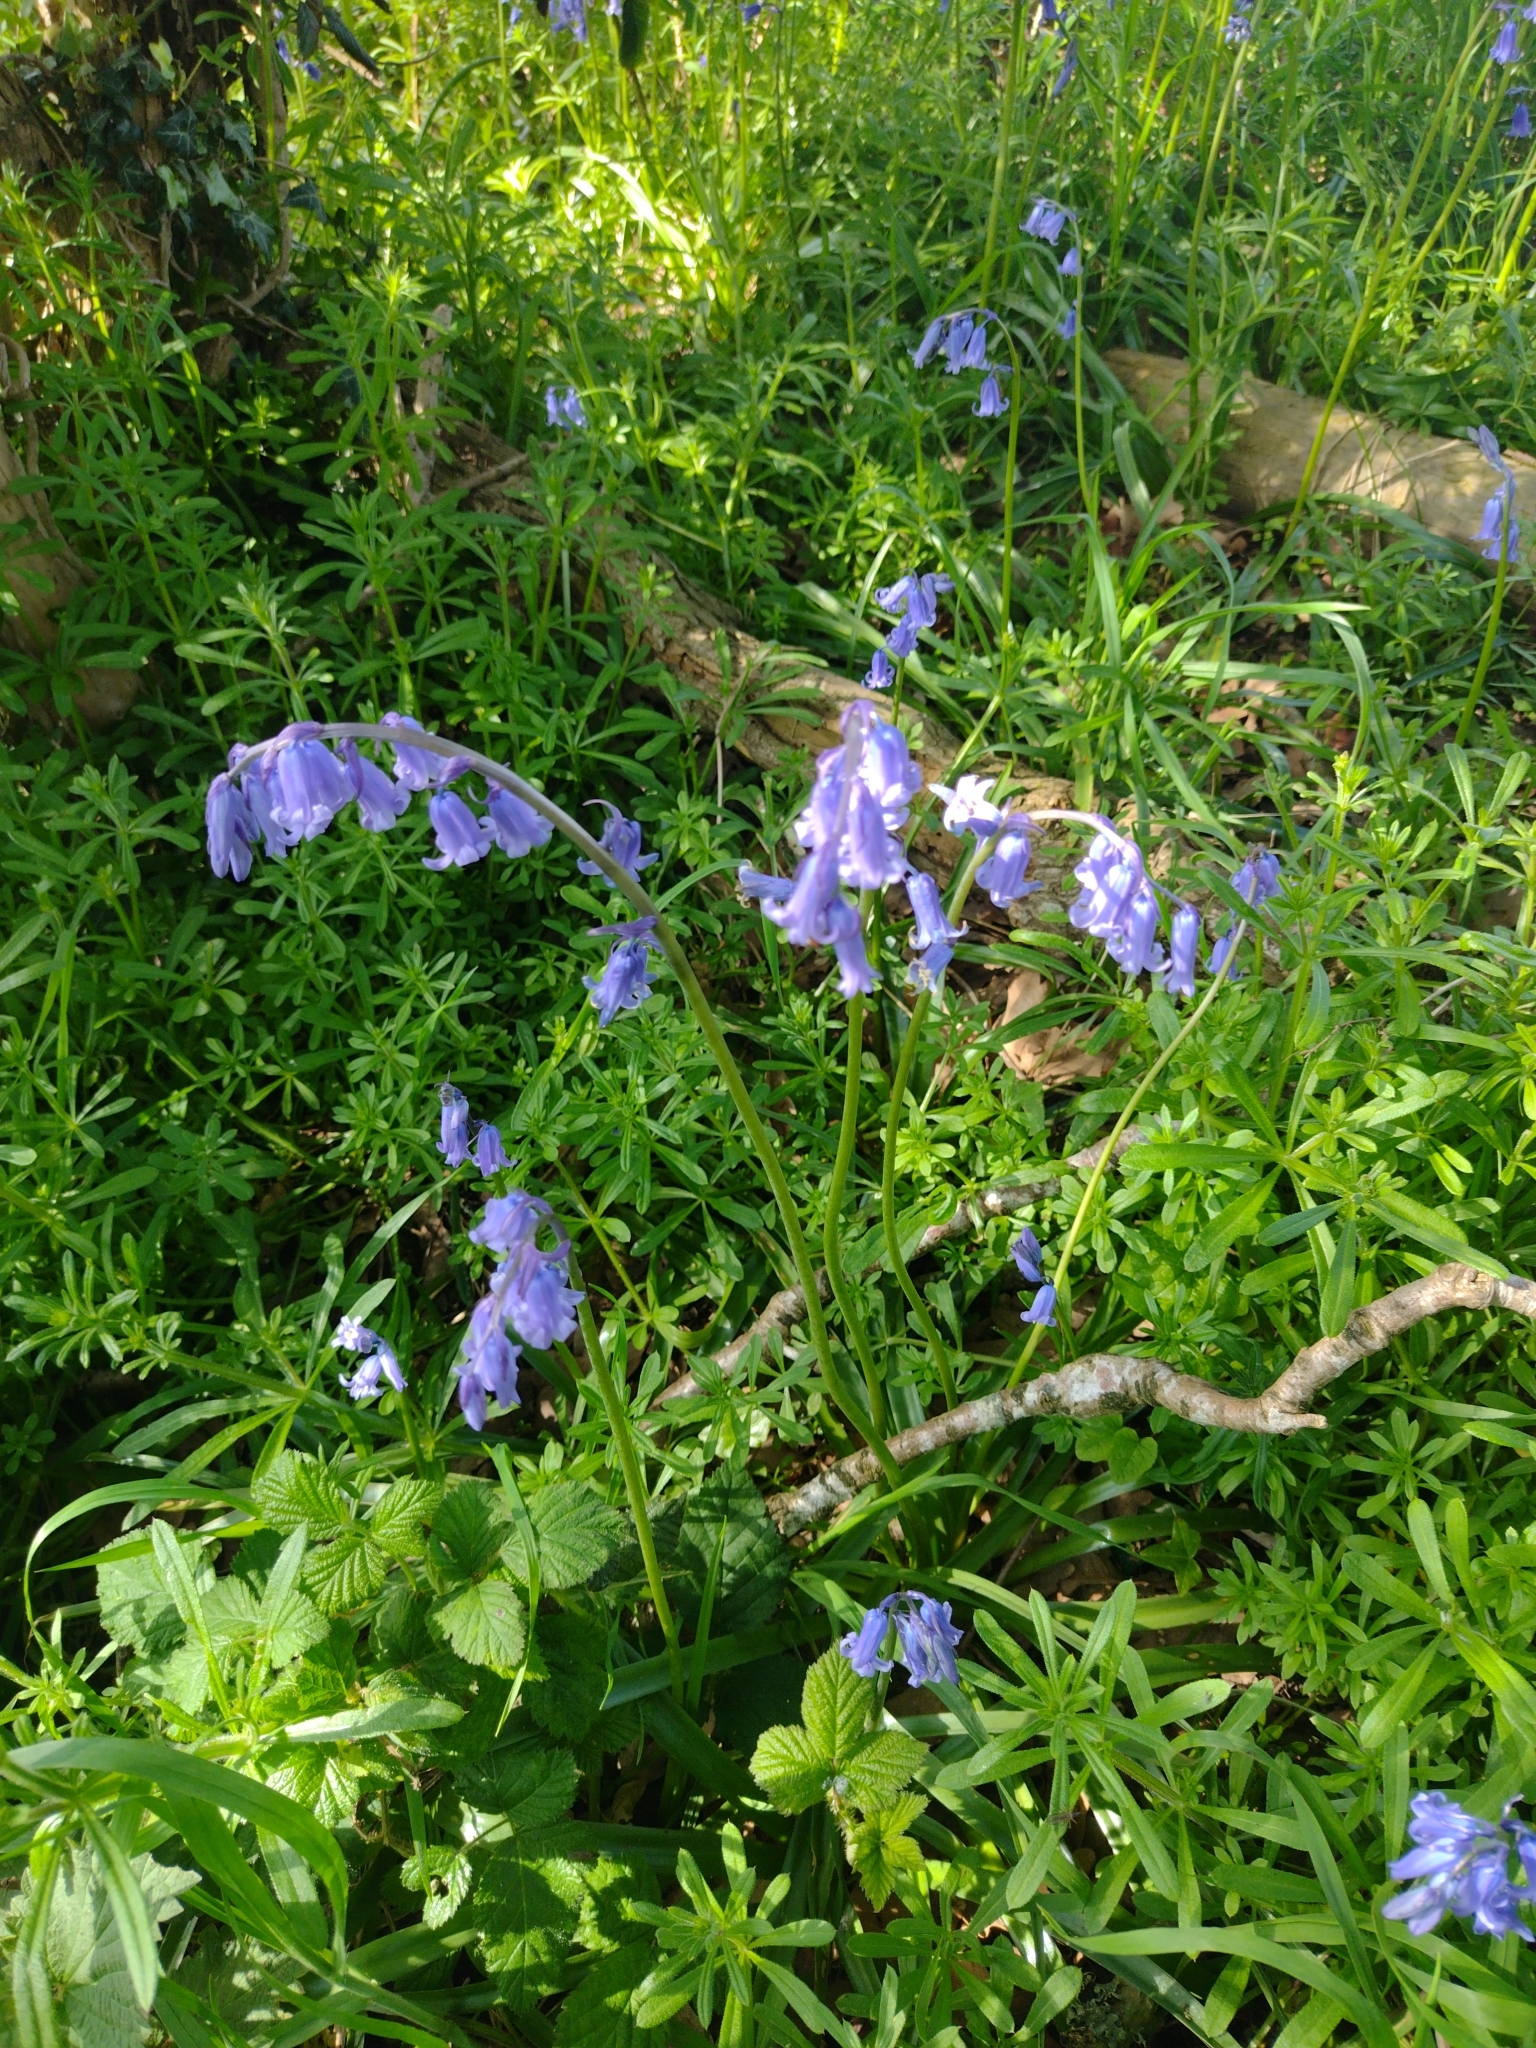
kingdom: Plantae
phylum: Tracheophyta
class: Liliopsida
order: Asparagales
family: Asparagaceae
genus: Hyacinthoides
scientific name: Hyacinthoides non-scripta
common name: Bluebell
